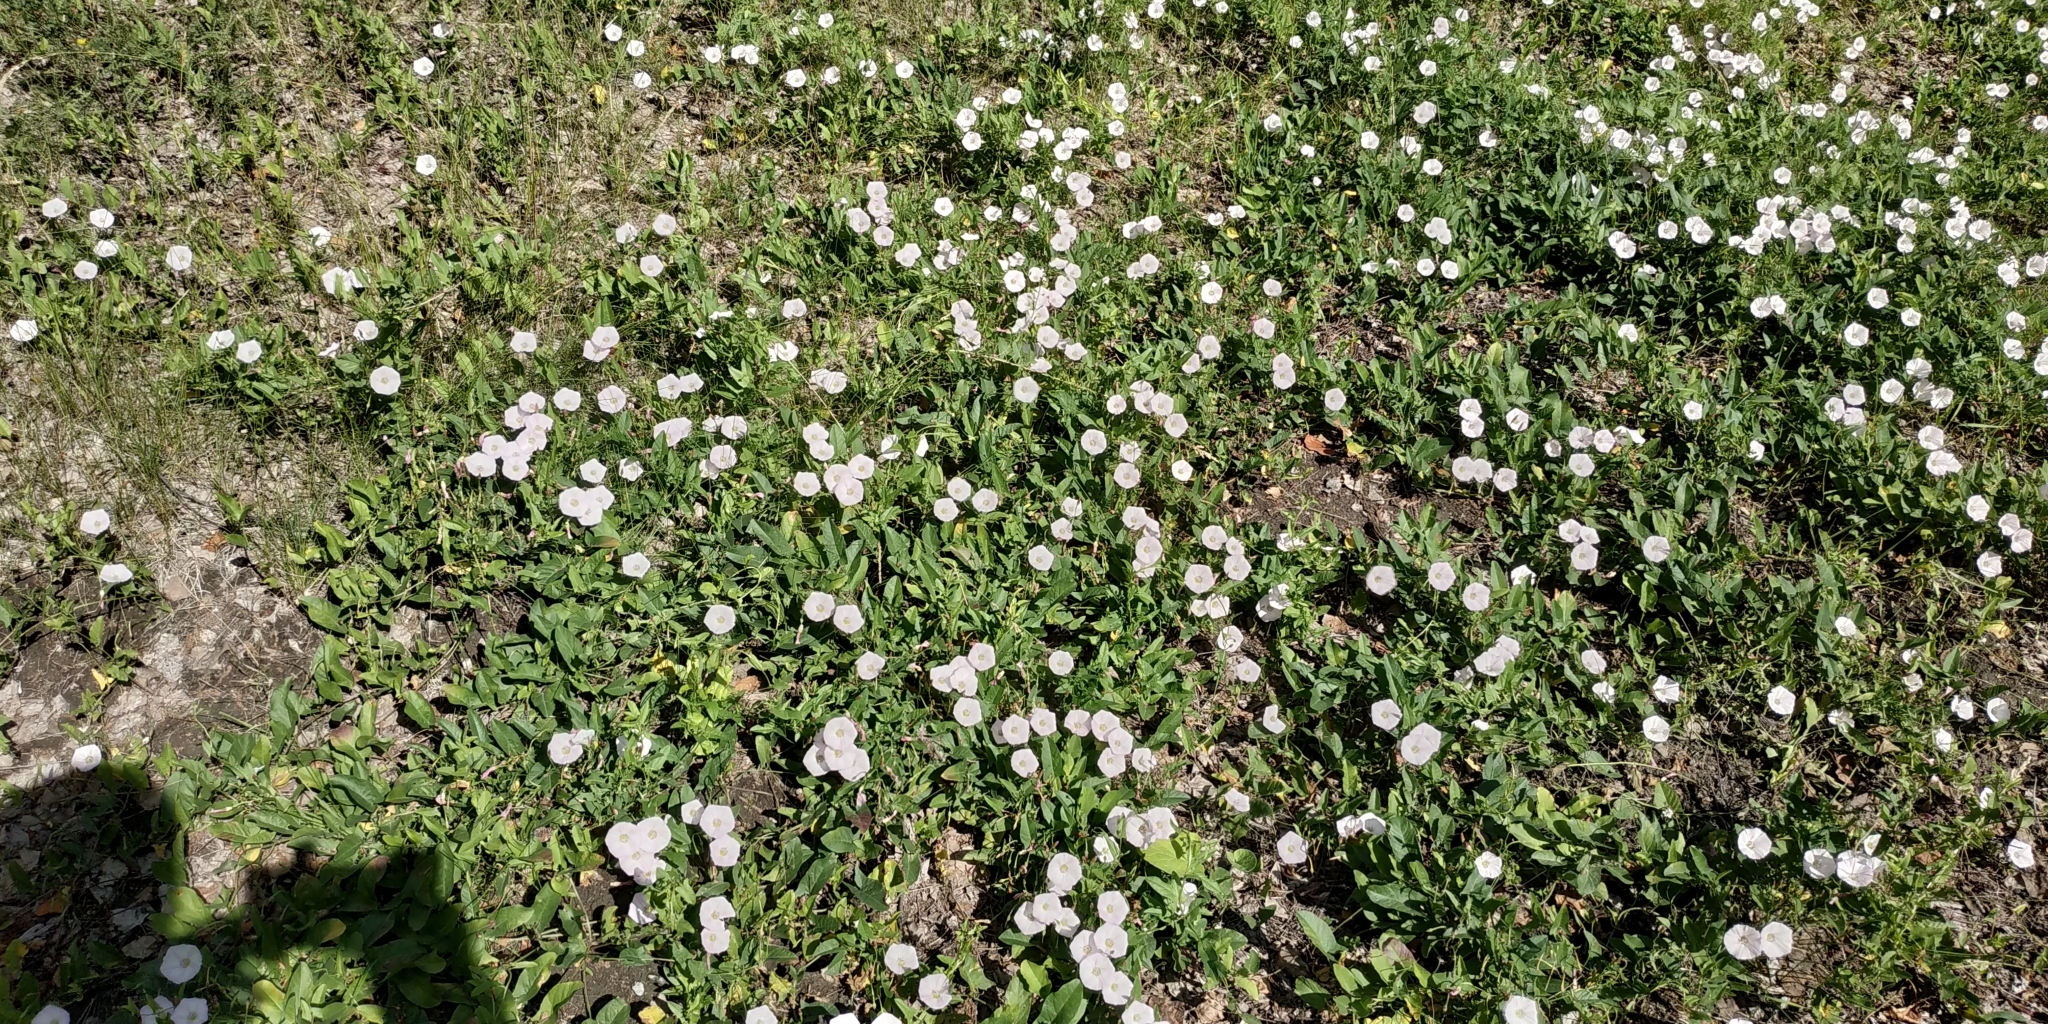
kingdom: Plantae
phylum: Tracheophyta
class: Magnoliopsida
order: Solanales
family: Convolvulaceae
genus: Convolvulus
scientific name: Convolvulus arvensis
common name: Field bindweed
